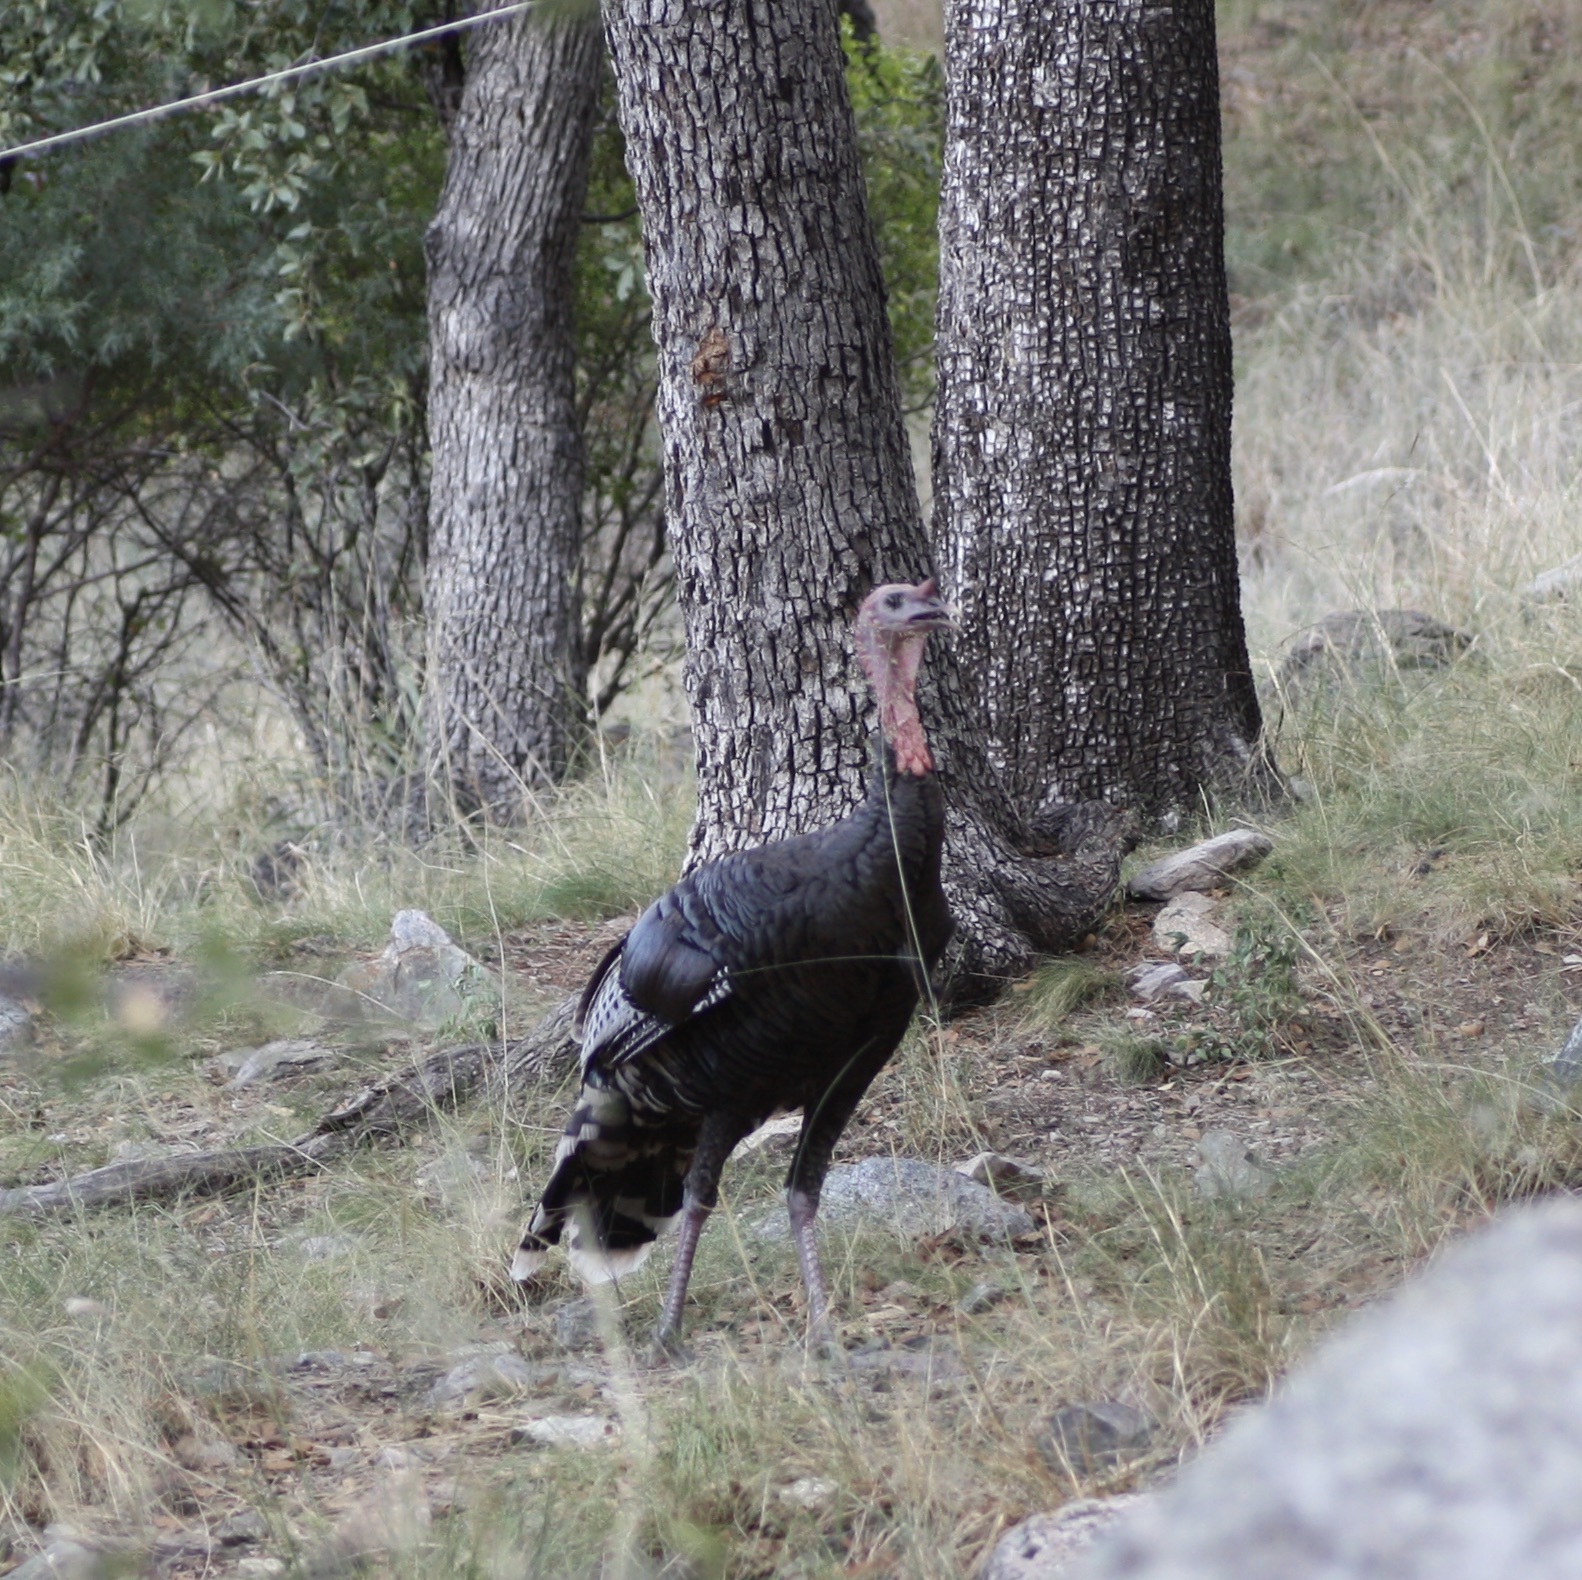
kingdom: Animalia
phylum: Chordata
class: Aves
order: Galliformes
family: Phasianidae
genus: Meleagris
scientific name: Meleagris gallopavo
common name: Wild turkey
